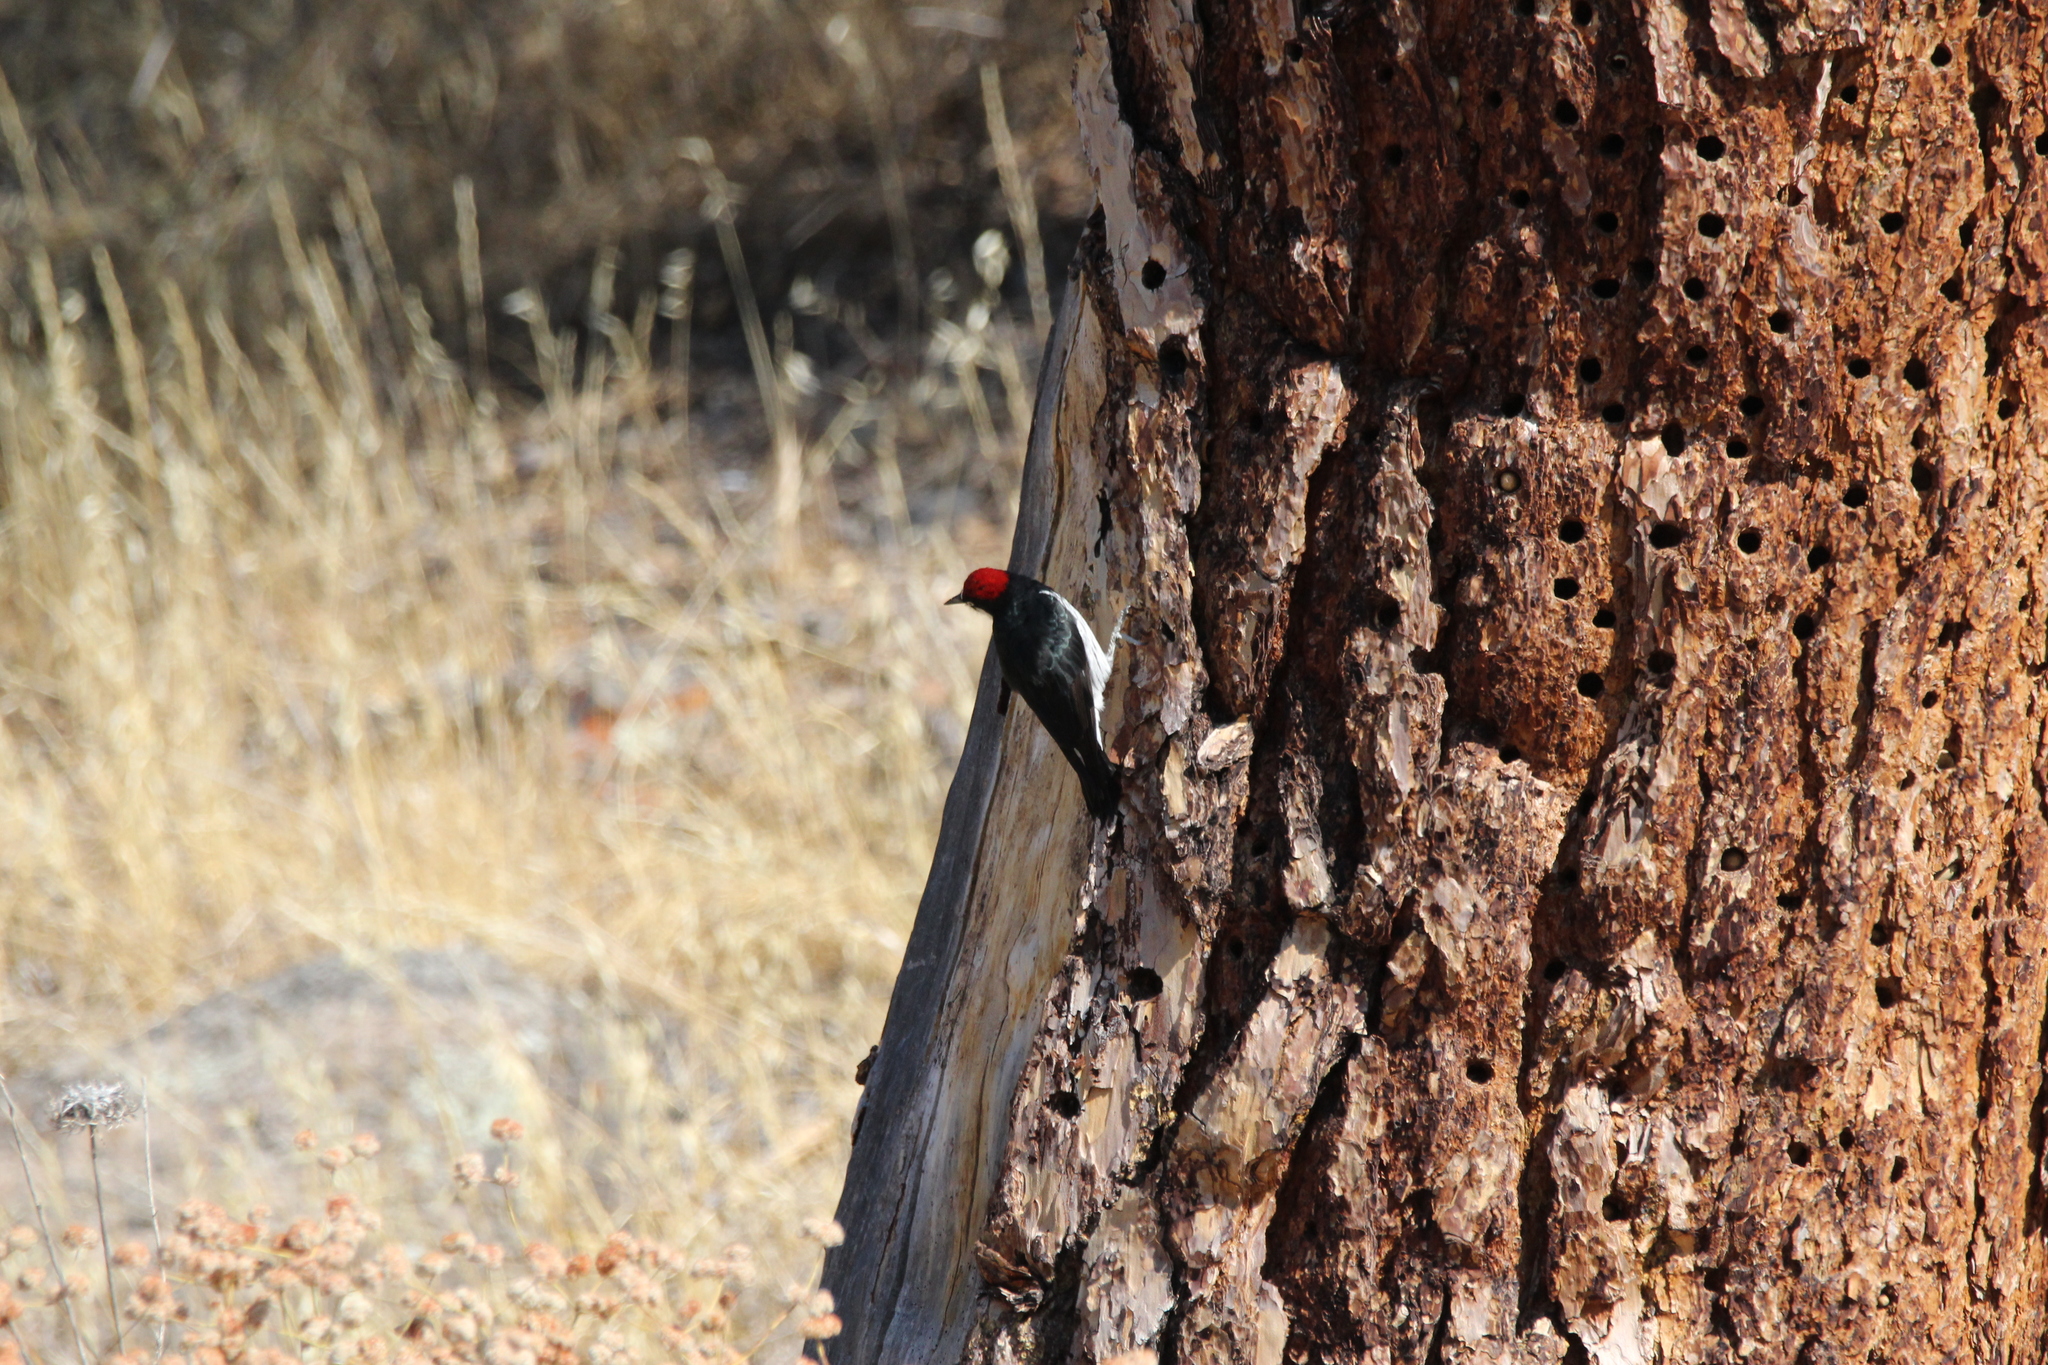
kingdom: Animalia
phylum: Chordata
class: Aves
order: Piciformes
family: Picidae
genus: Melanerpes
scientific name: Melanerpes formicivorus
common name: Acorn woodpecker
